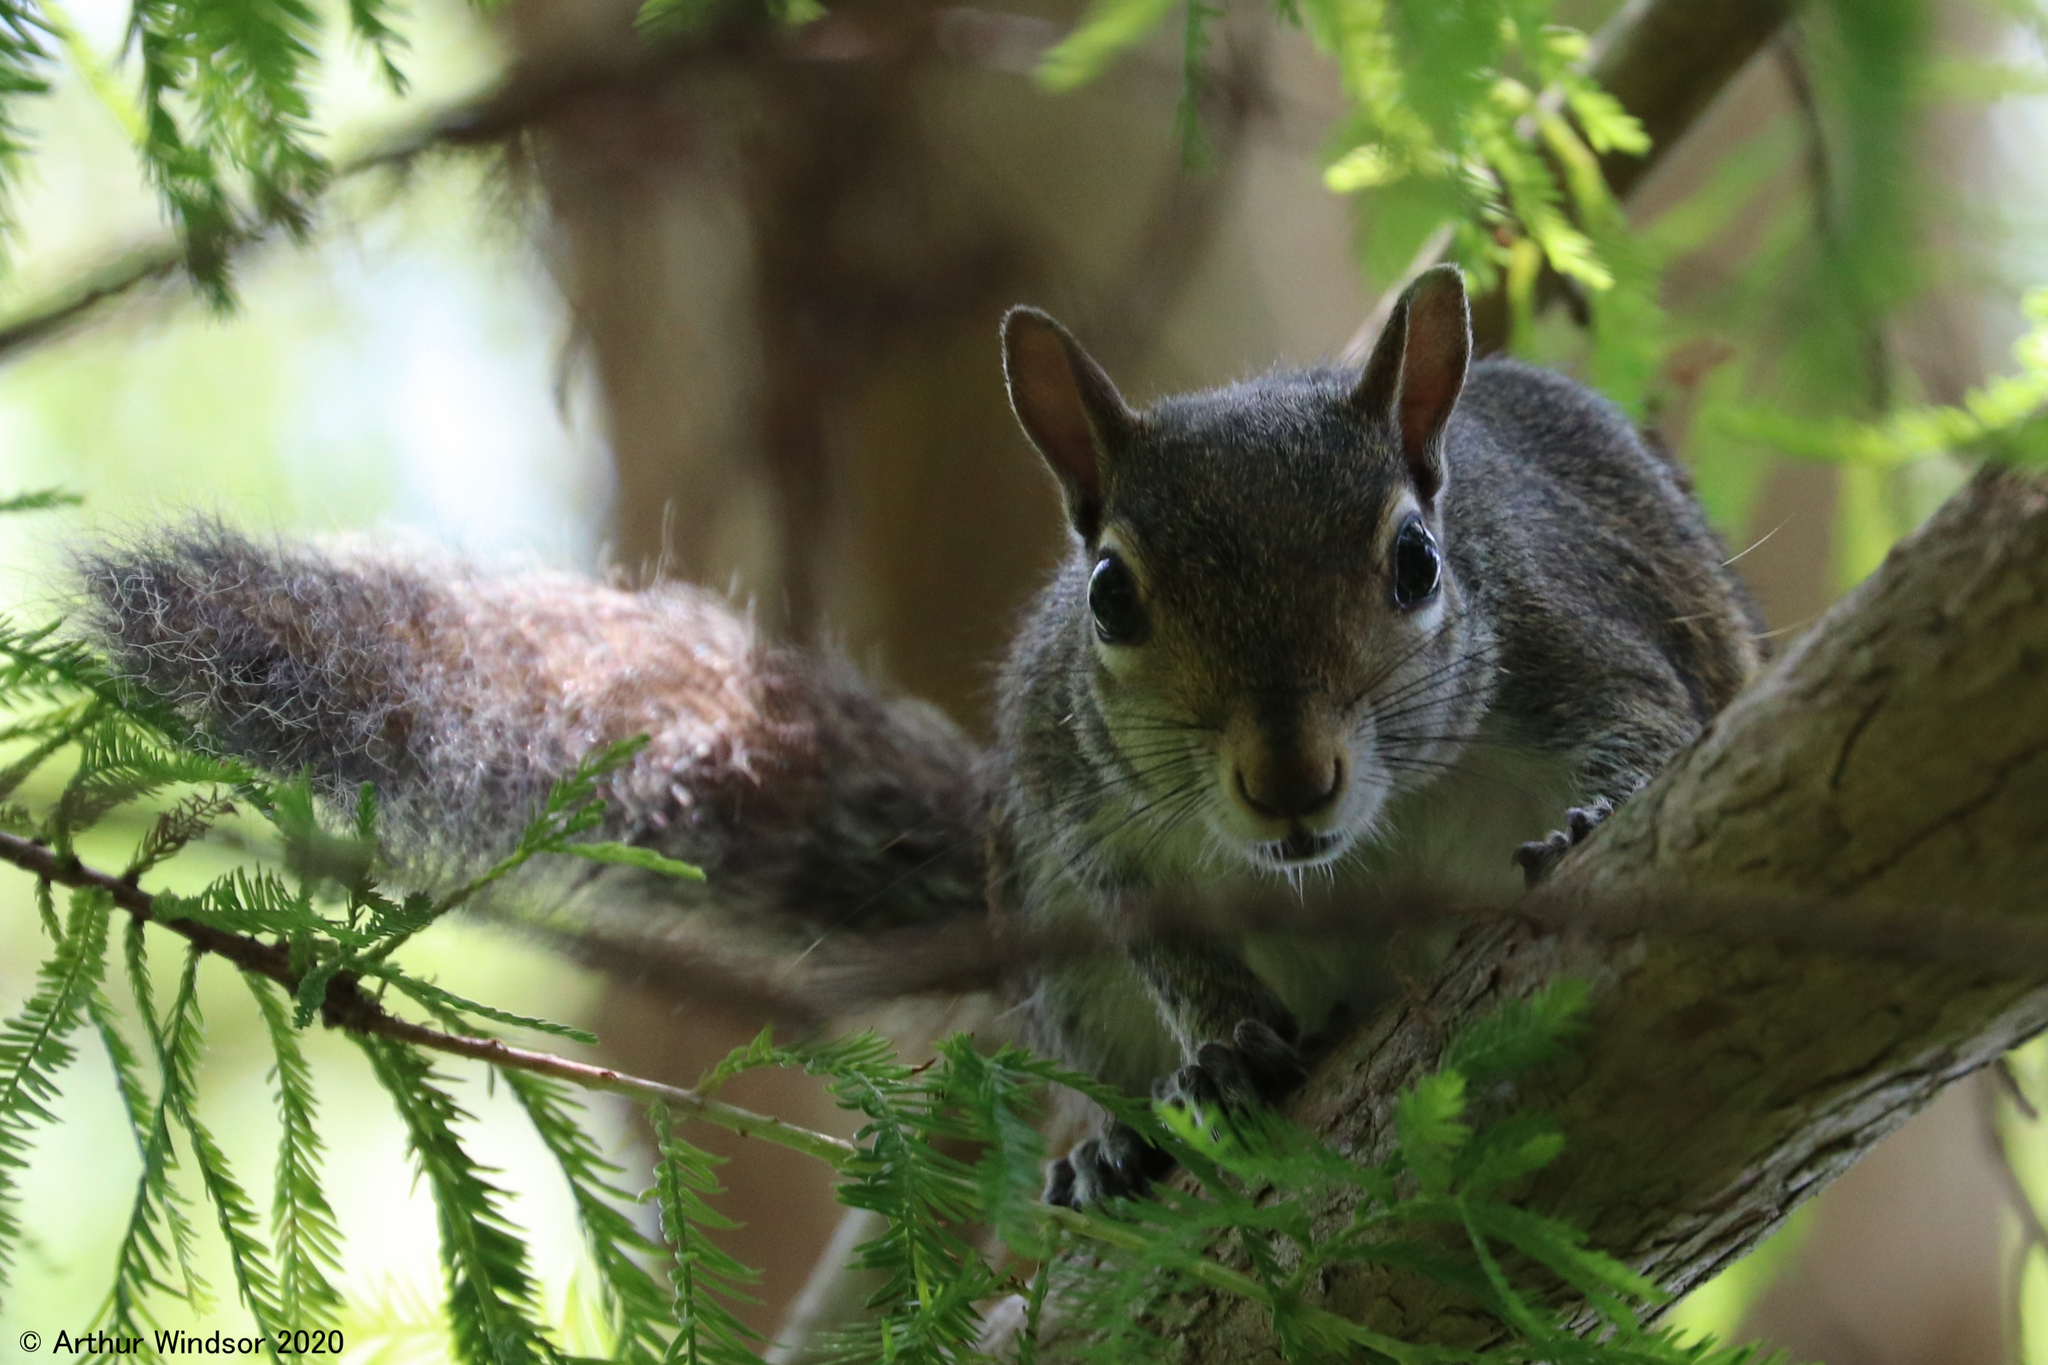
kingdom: Animalia
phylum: Chordata
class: Mammalia
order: Rodentia
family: Sciuridae
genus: Sciurus
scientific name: Sciurus carolinensis
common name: Eastern gray squirrel
